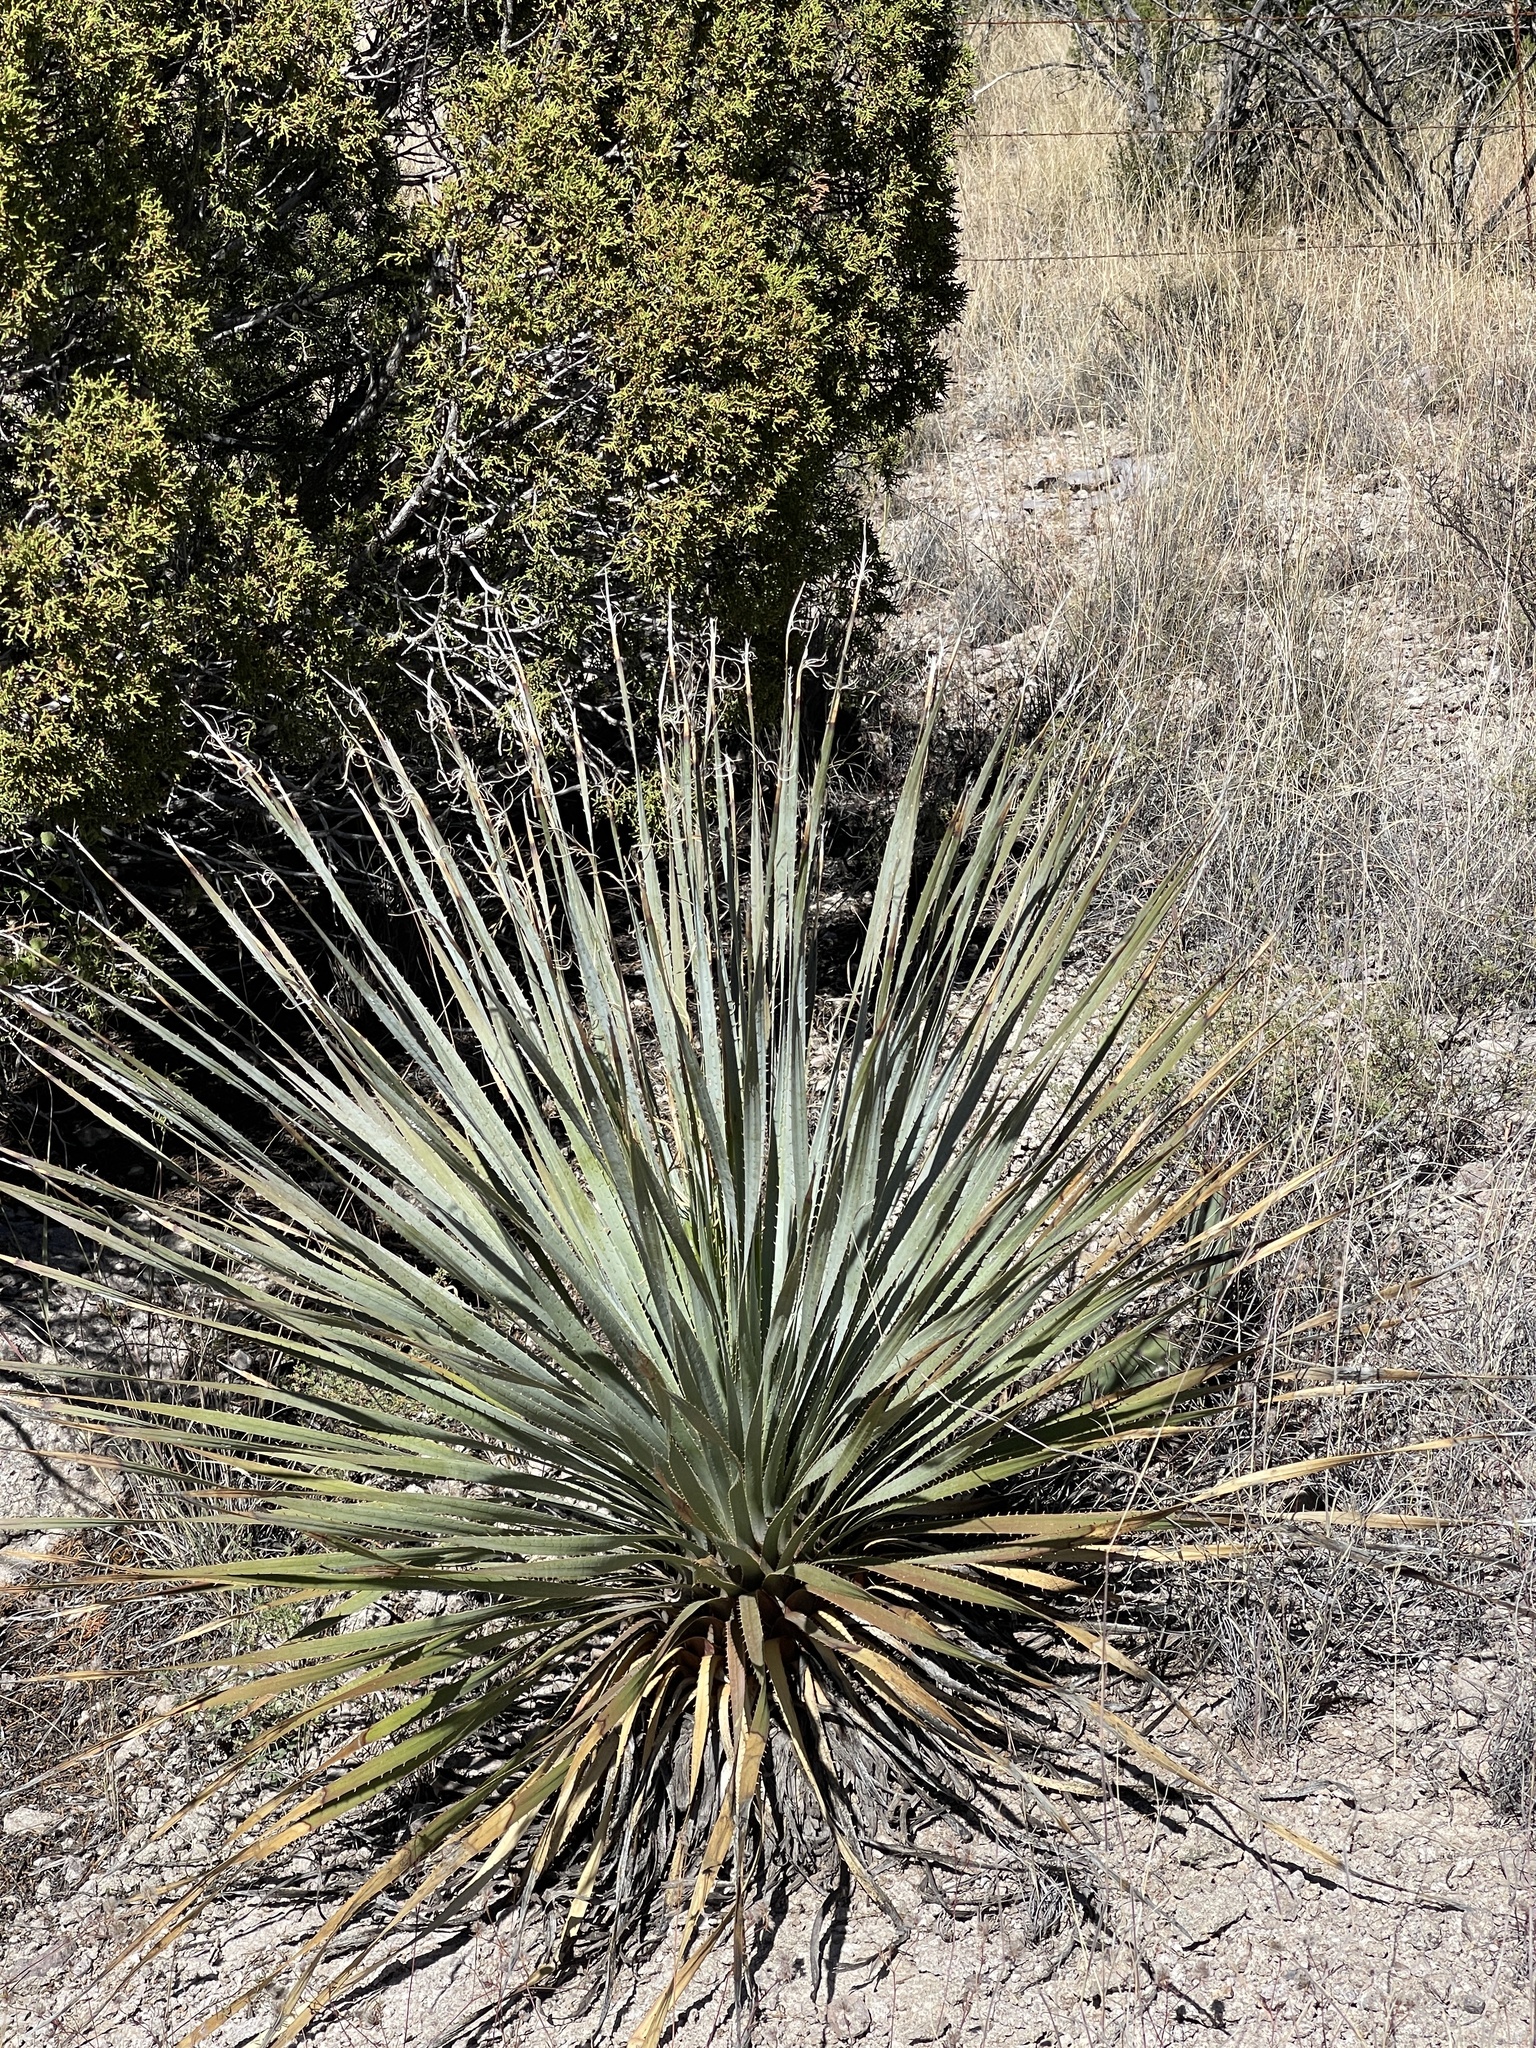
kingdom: Plantae
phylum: Tracheophyta
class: Liliopsida
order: Asparagales
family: Asparagaceae
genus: Dasylirion
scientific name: Dasylirion wheeleri
